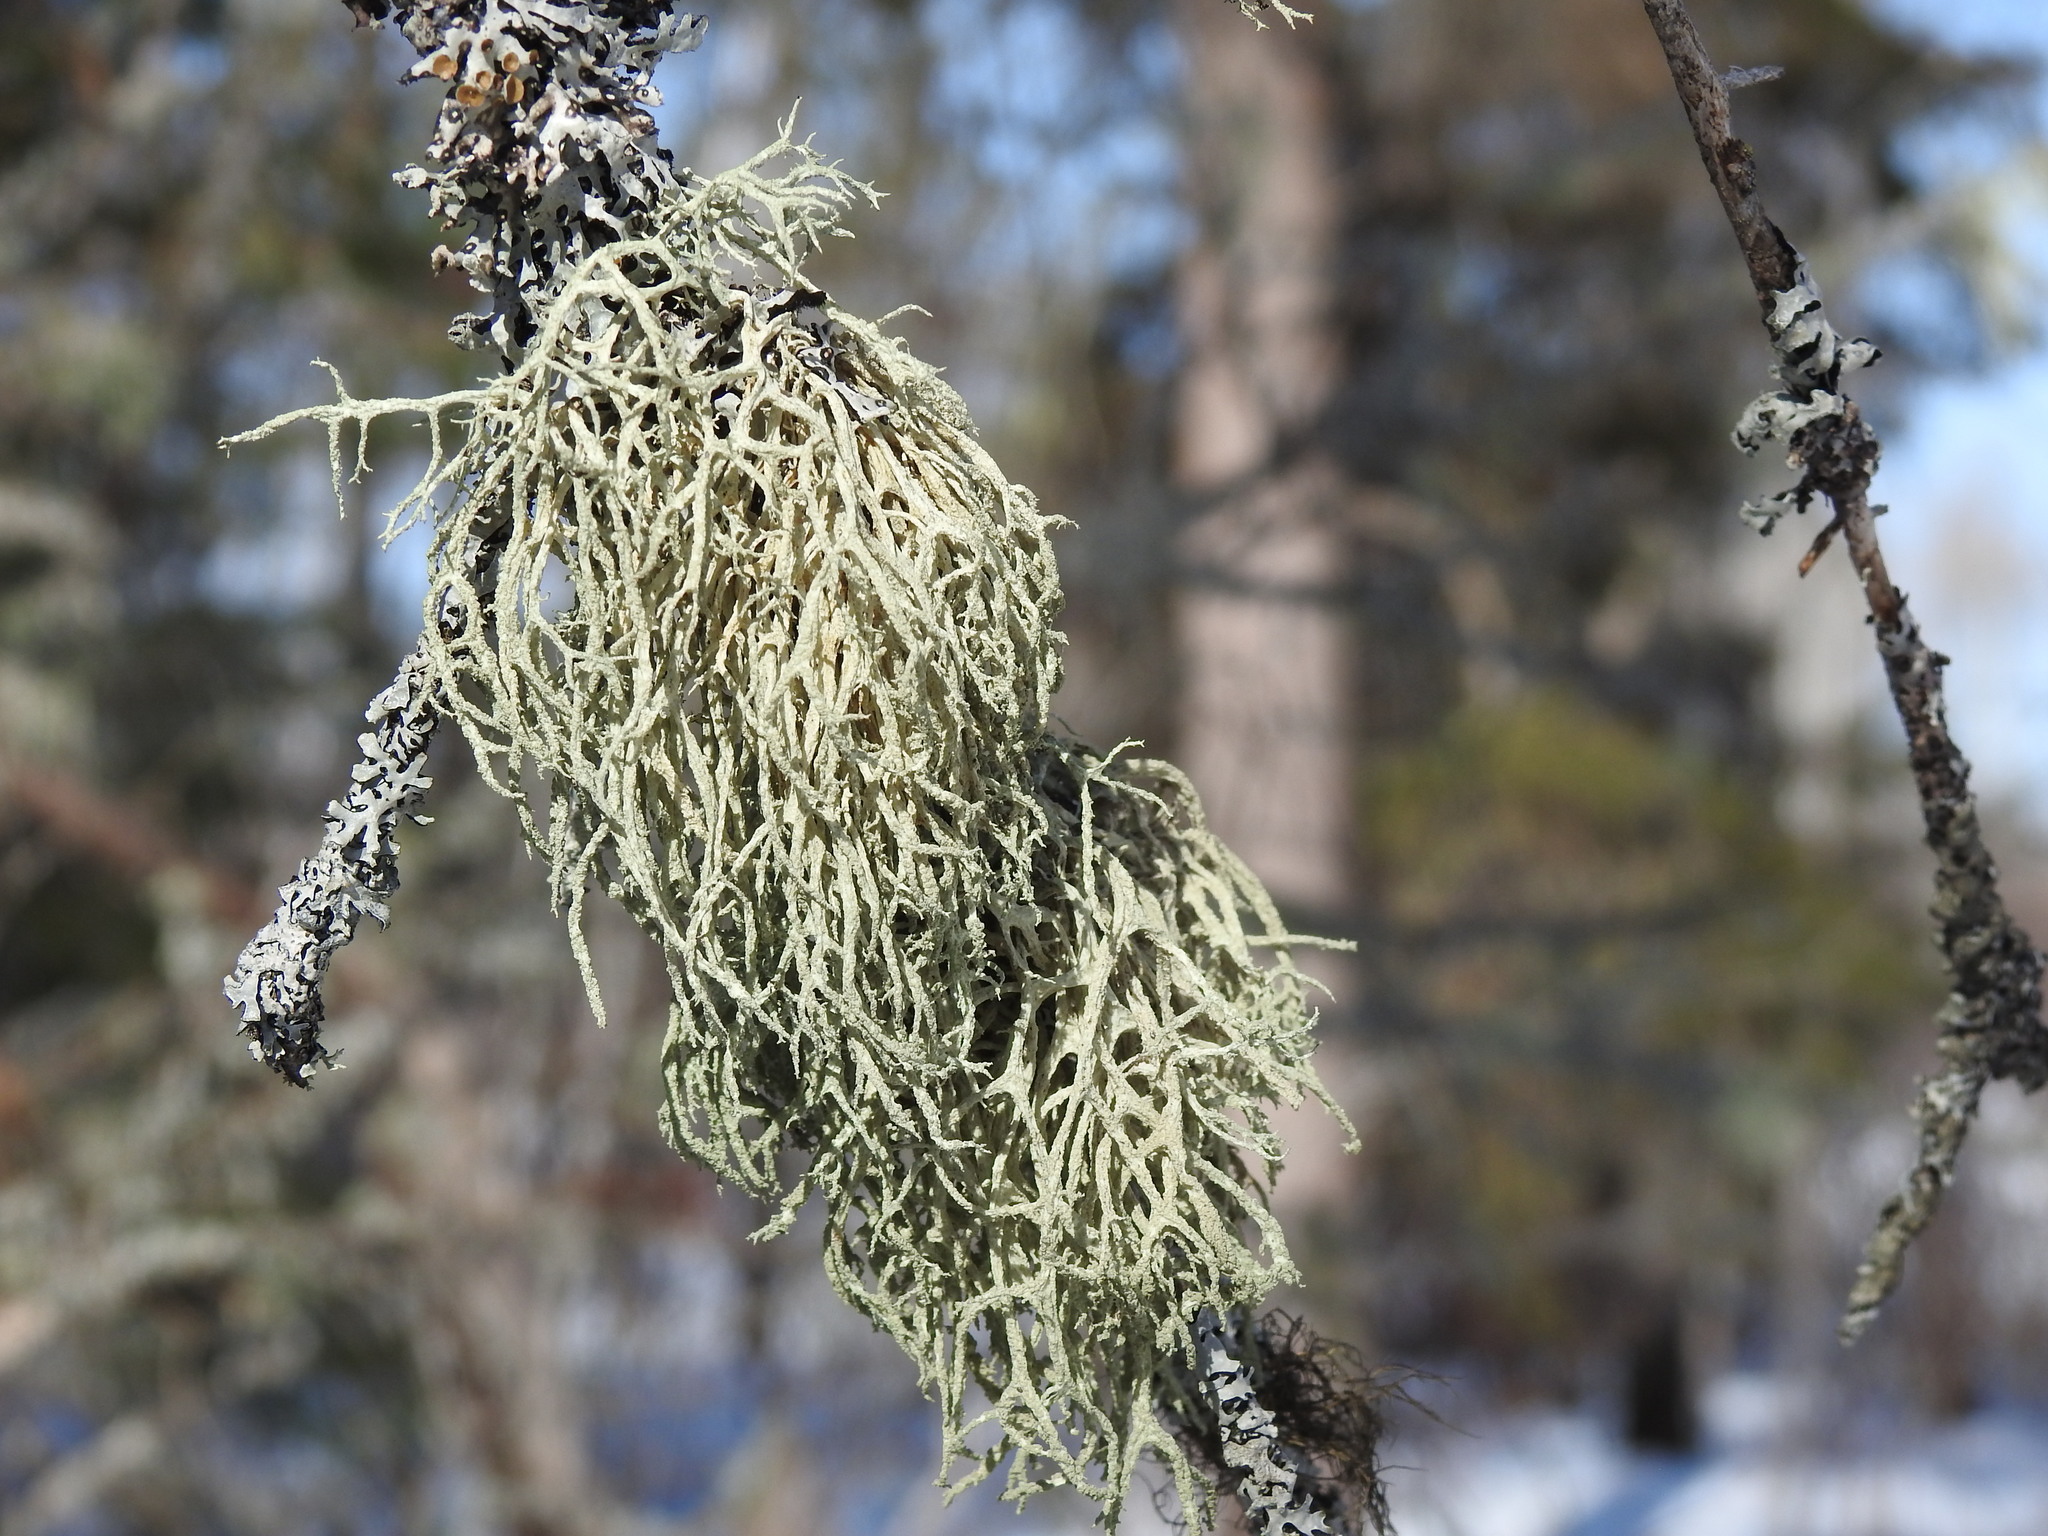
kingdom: Fungi
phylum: Ascomycota
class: Lecanoromycetes
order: Lecanorales
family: Parmeliaceae
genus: Evernia
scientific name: Evernia mesomorpha
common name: Boreal oak moss lichen
